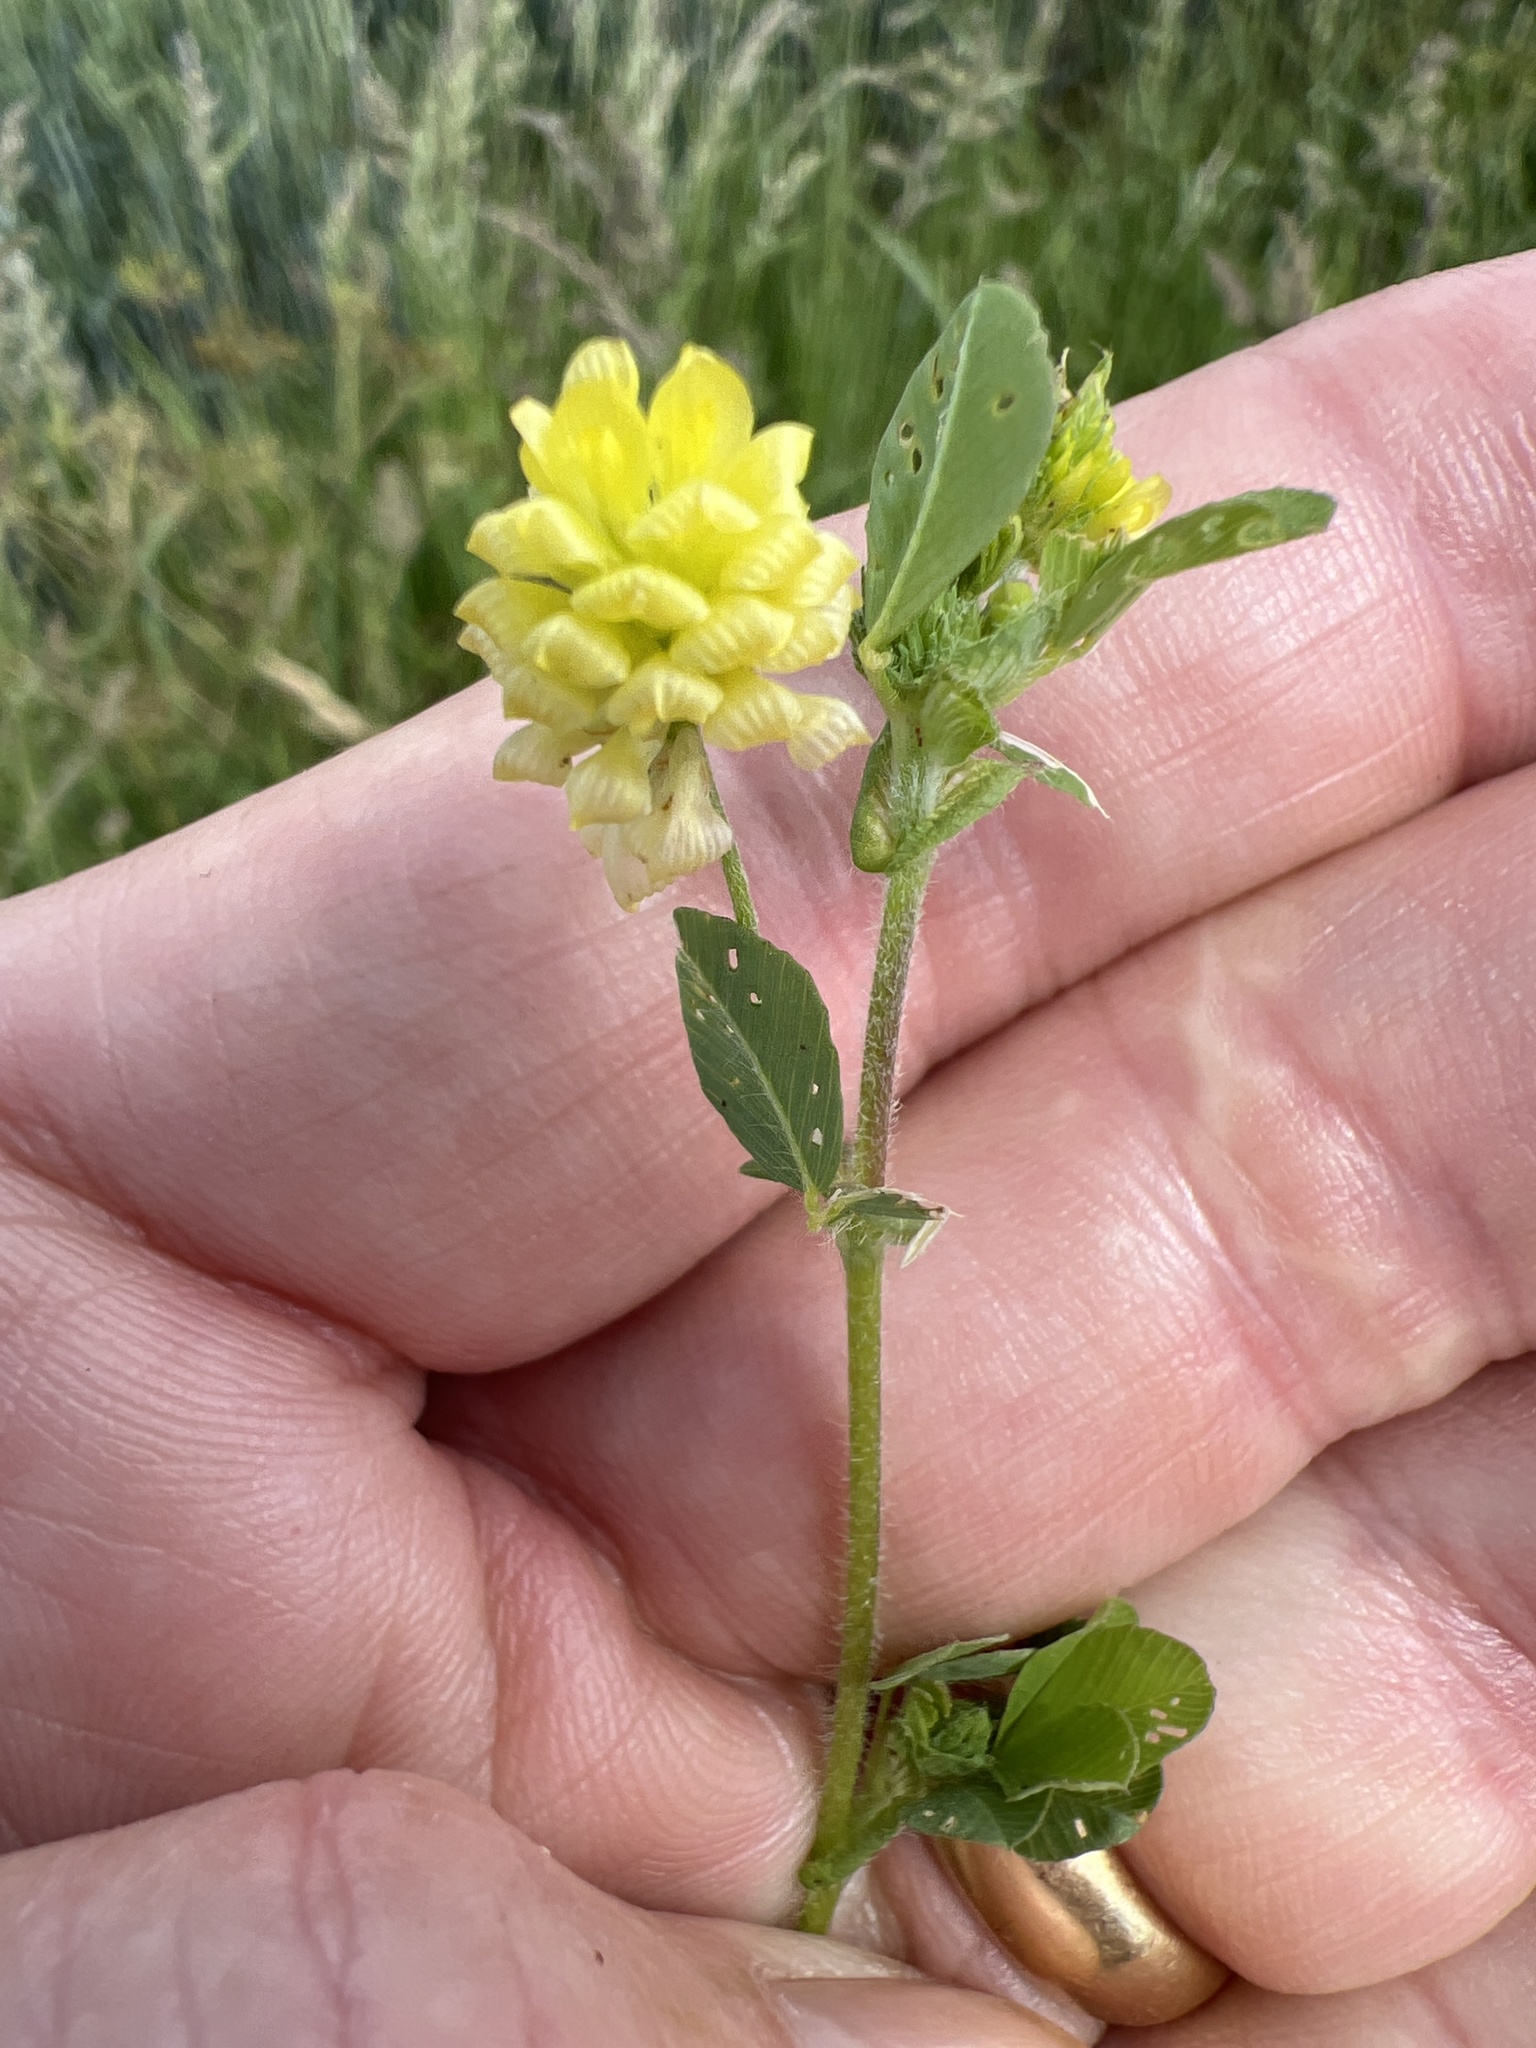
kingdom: Plantae
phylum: Tracheophyta
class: Magnoliopsida
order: Fabales
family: Fabaceae
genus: Trifolium
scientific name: Trifolium campestre
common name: Field clover
